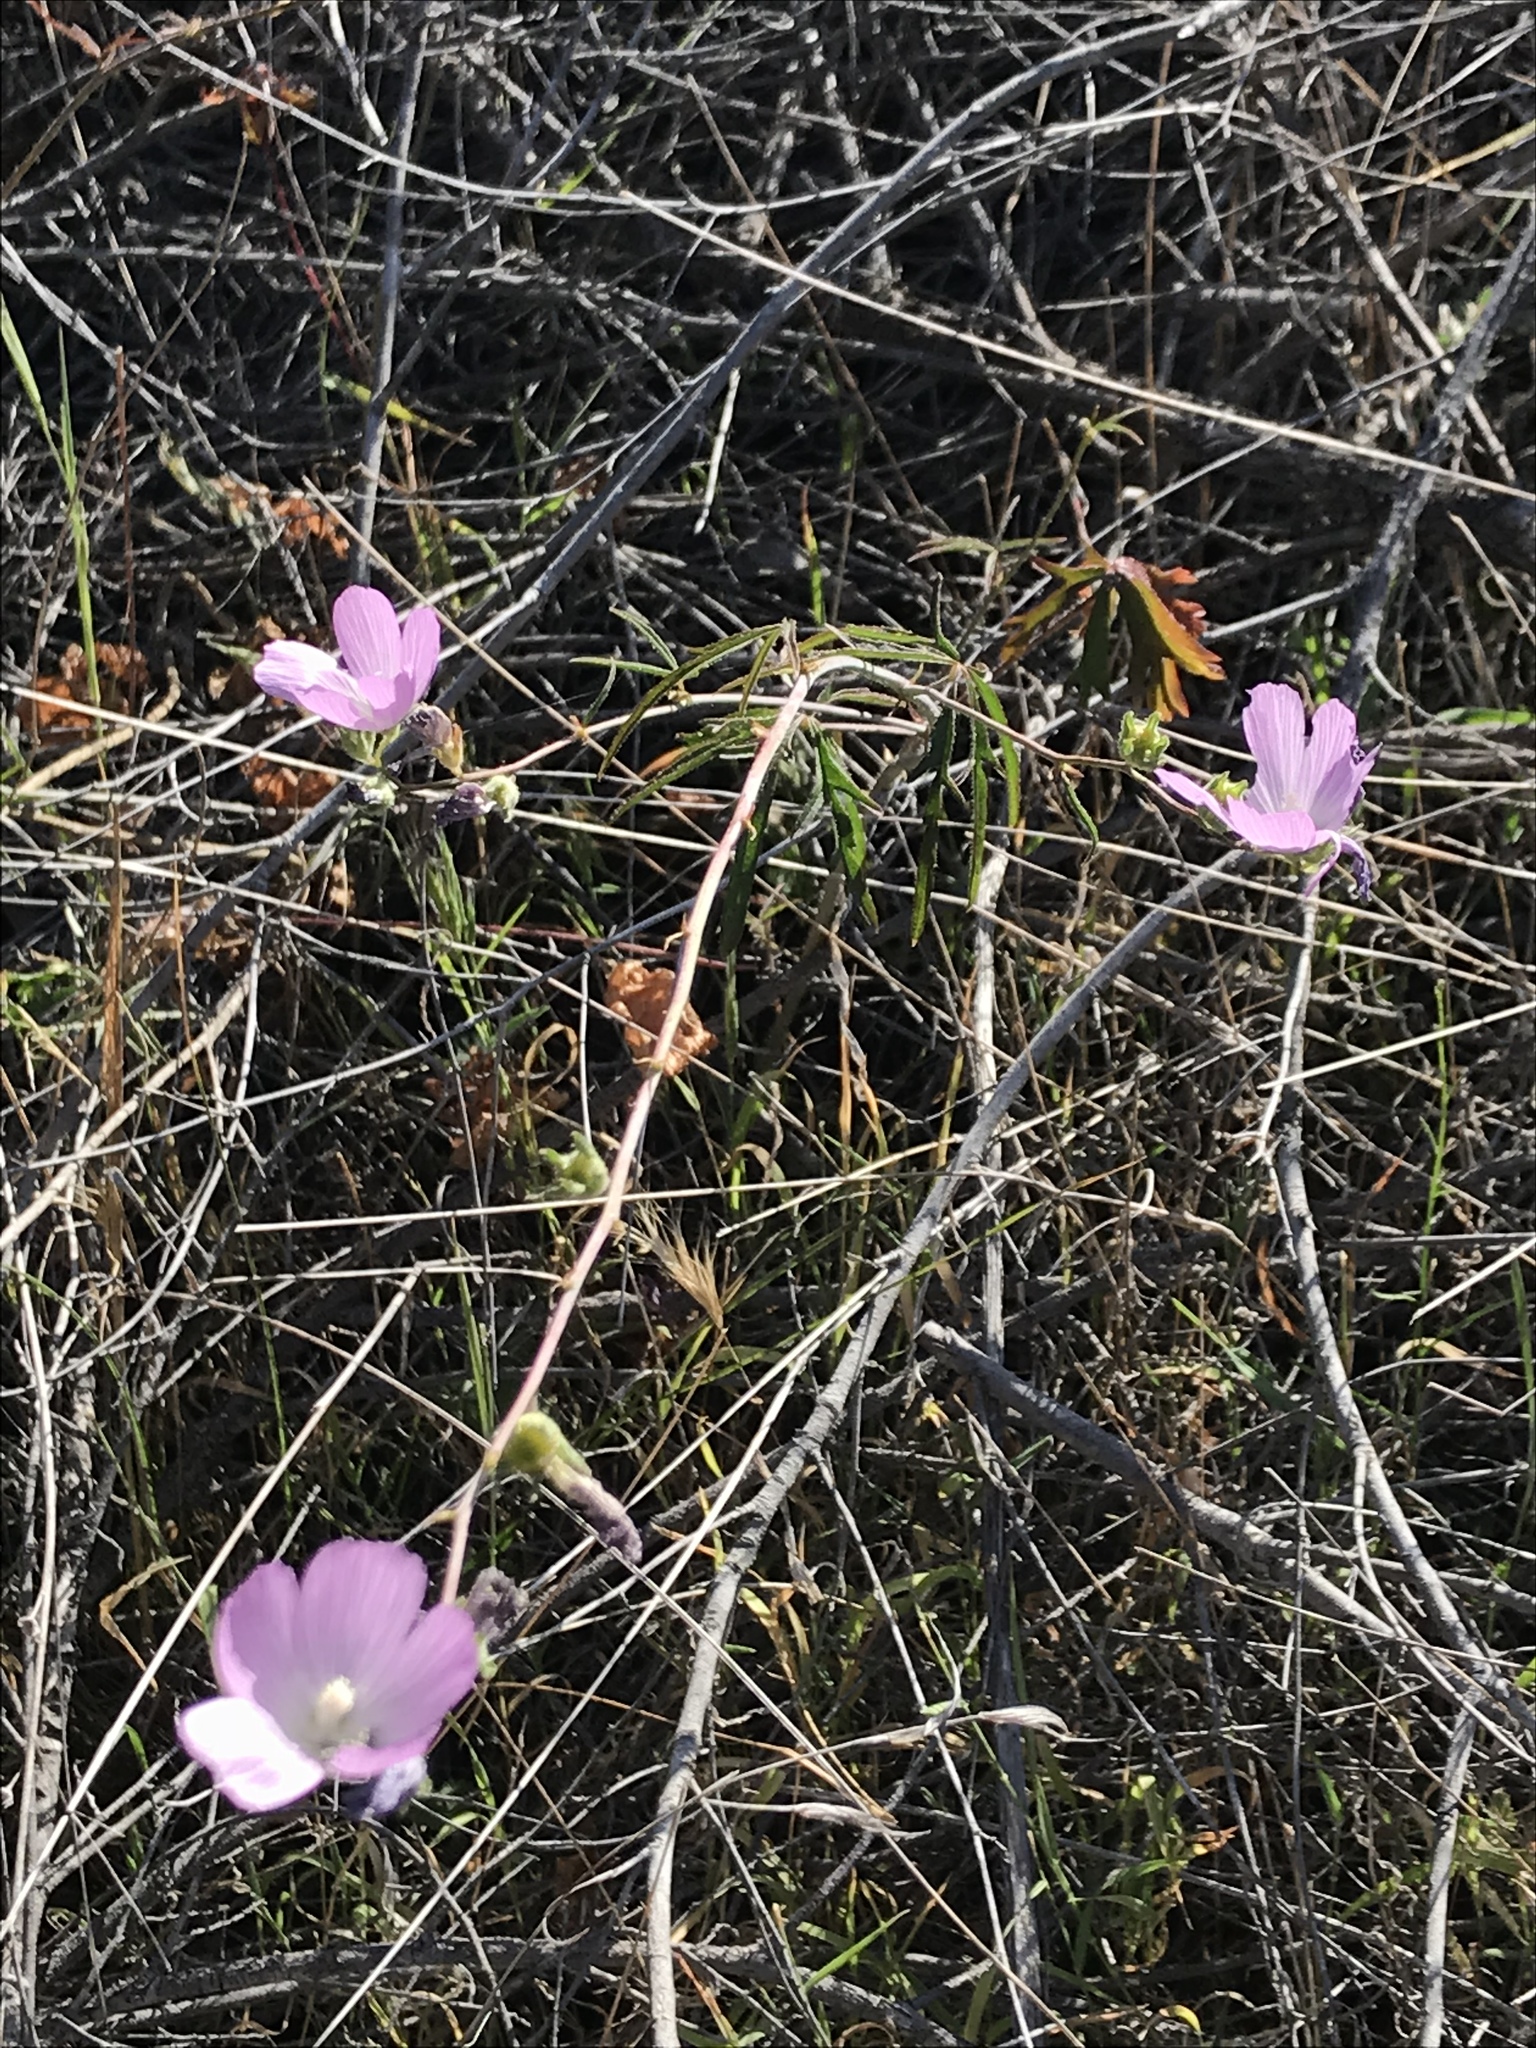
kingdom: Plantae
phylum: Tracheophyta
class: Magnoliopsida
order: Malvales
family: Malvaceae
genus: Sidalcea
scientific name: Sidalcea sparsifolia
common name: Southern checkerbloom
